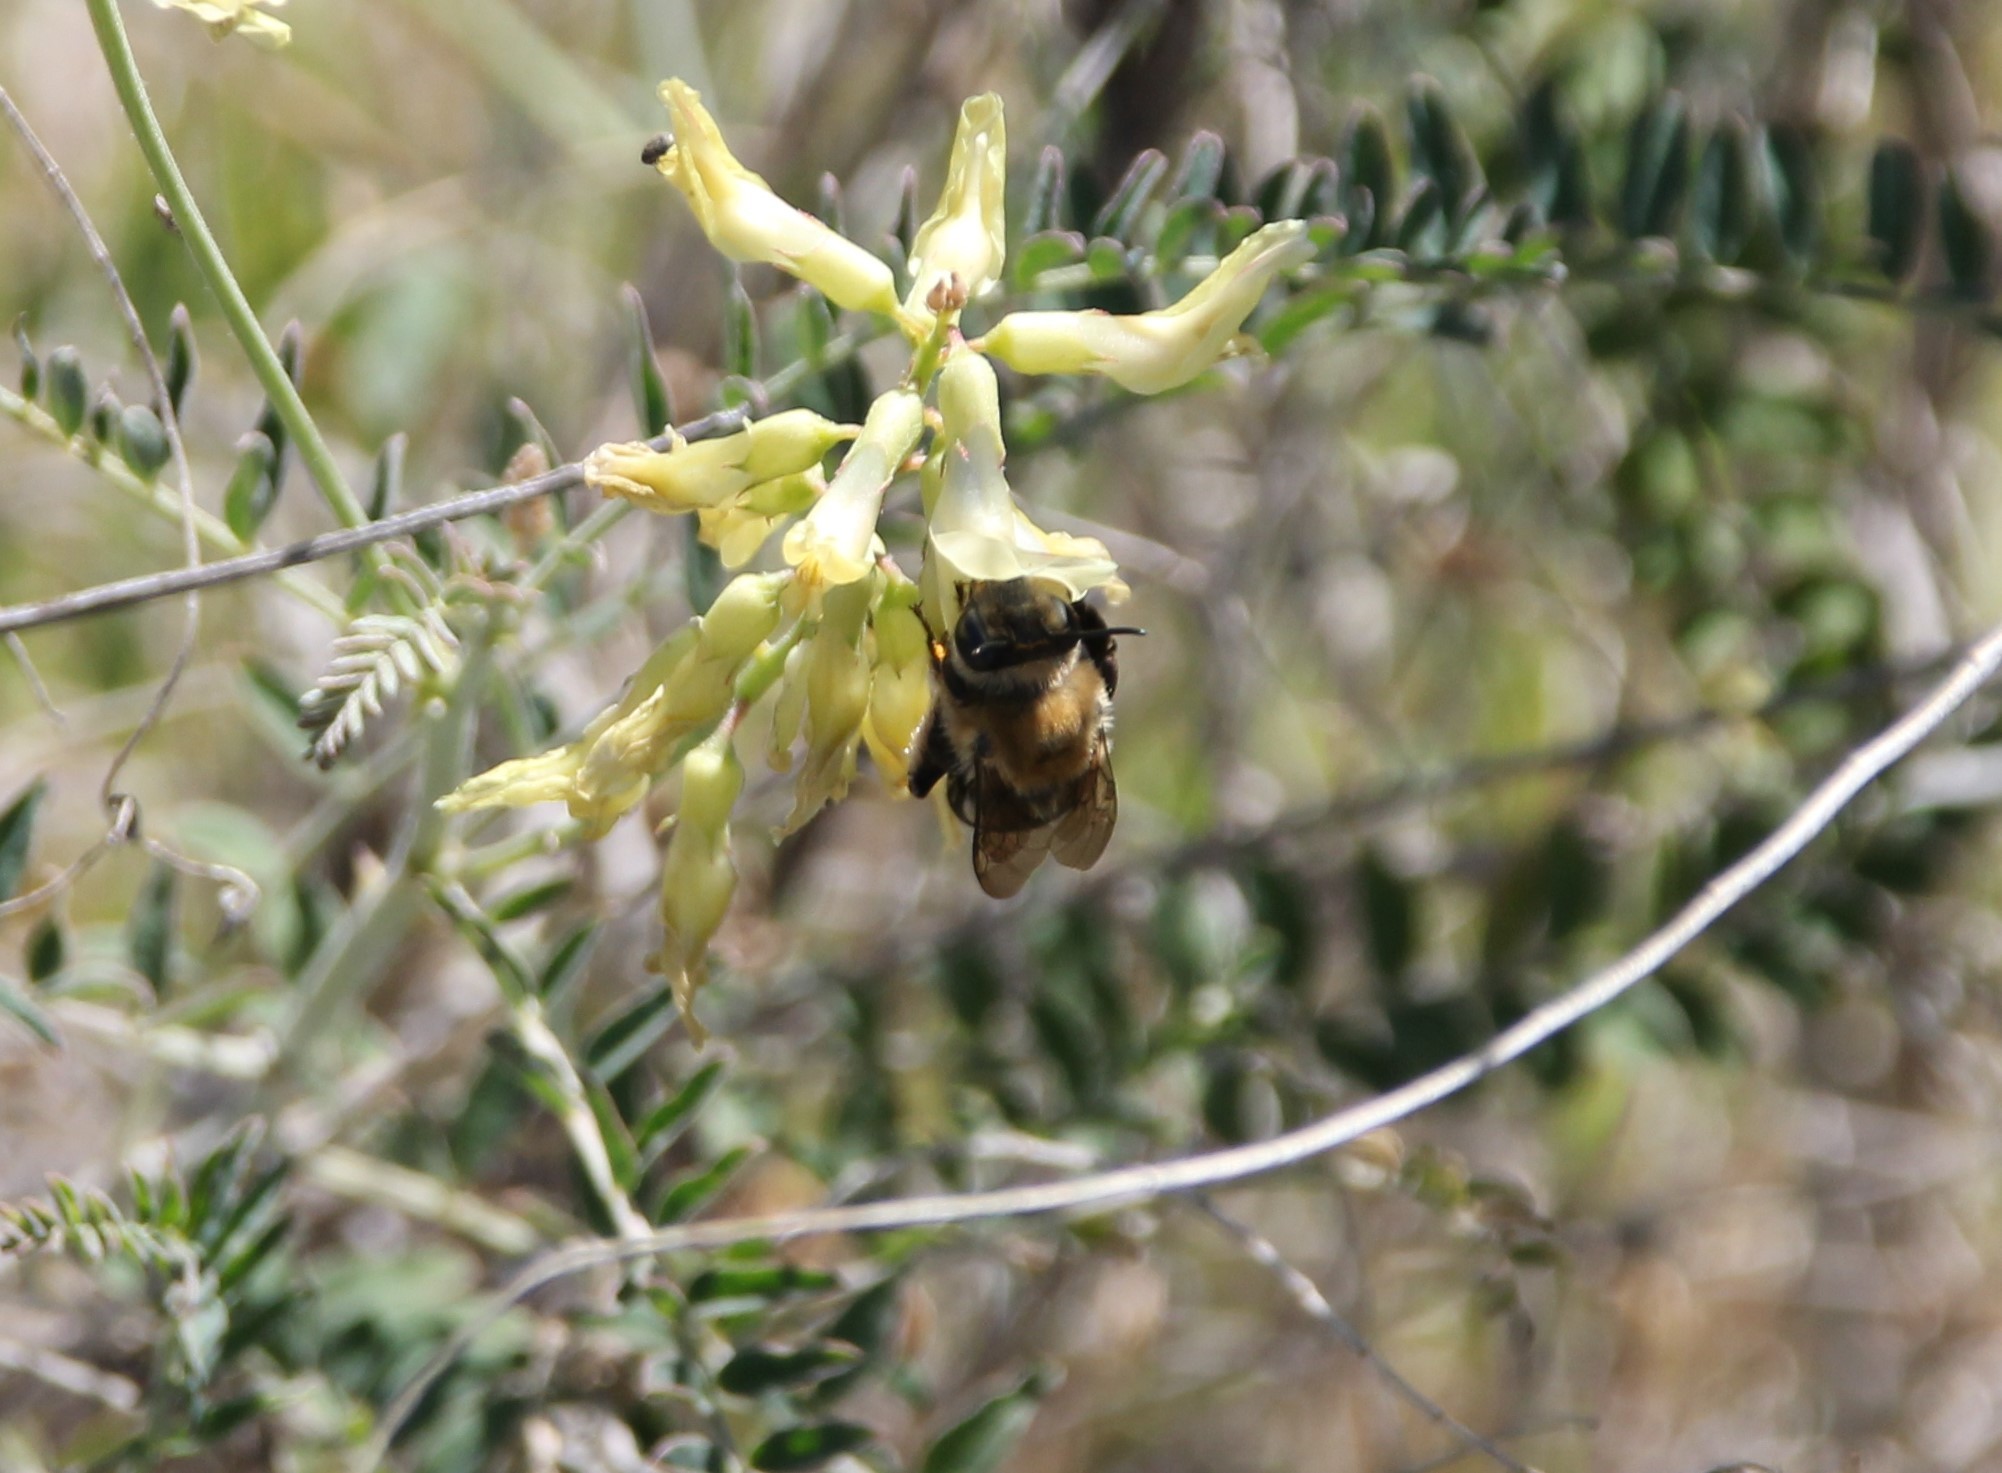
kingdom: Animalia
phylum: Arthropoda
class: Insecta
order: Hymenoptera
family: Apidae
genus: Habropoda
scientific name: Habropoda tristissima
